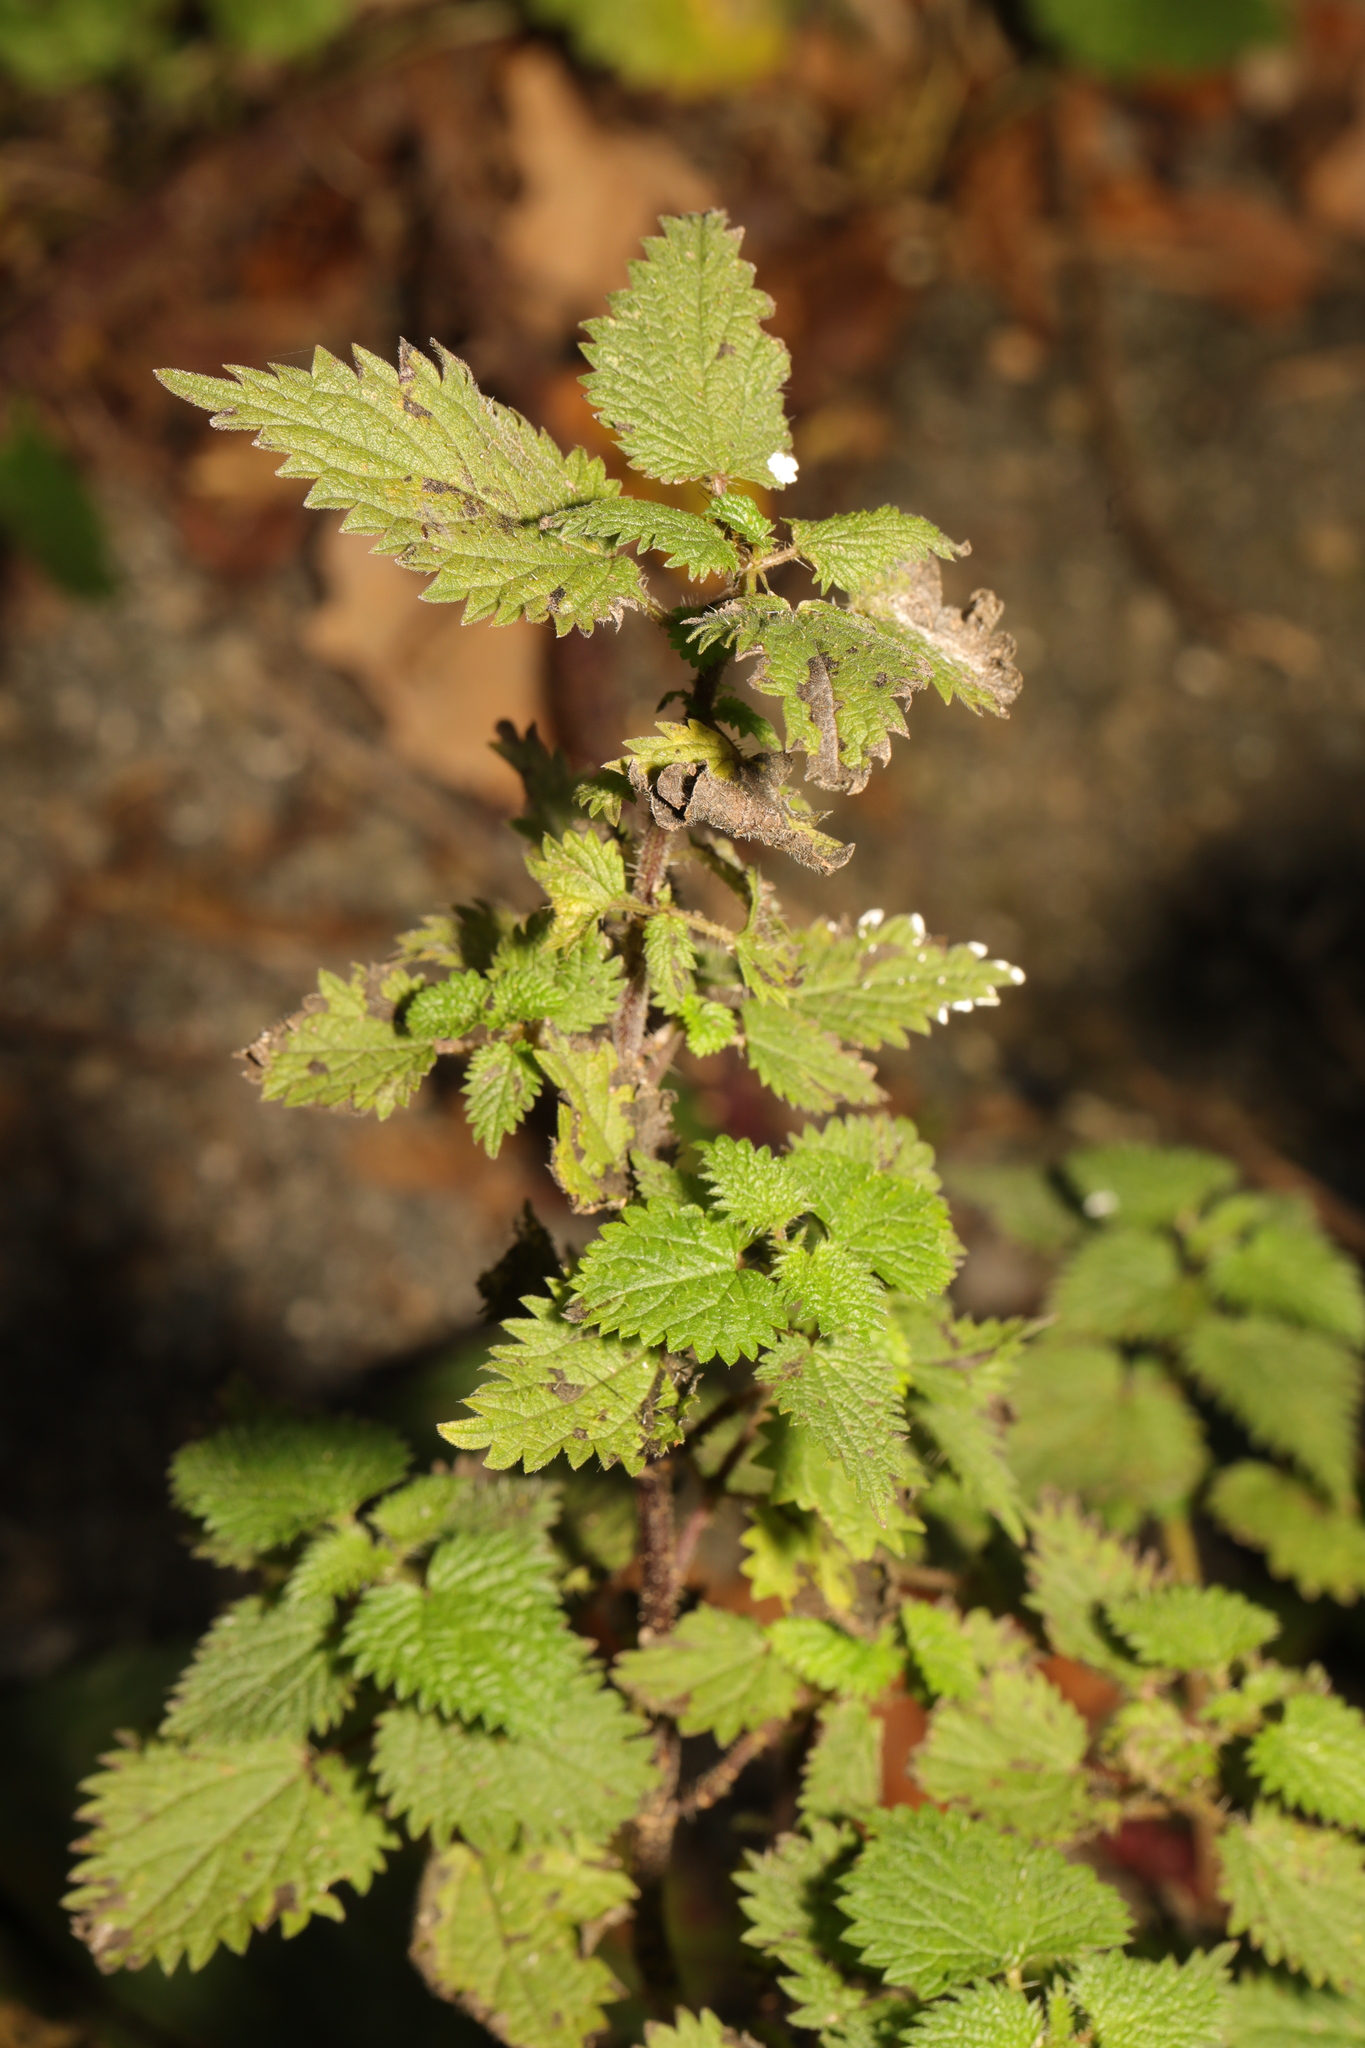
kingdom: Plantae
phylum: Tracheophyta
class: Magnoliopsida
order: Rosales
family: Urticaceae
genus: Urtica
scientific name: Urtica dioica
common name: Common nettle
